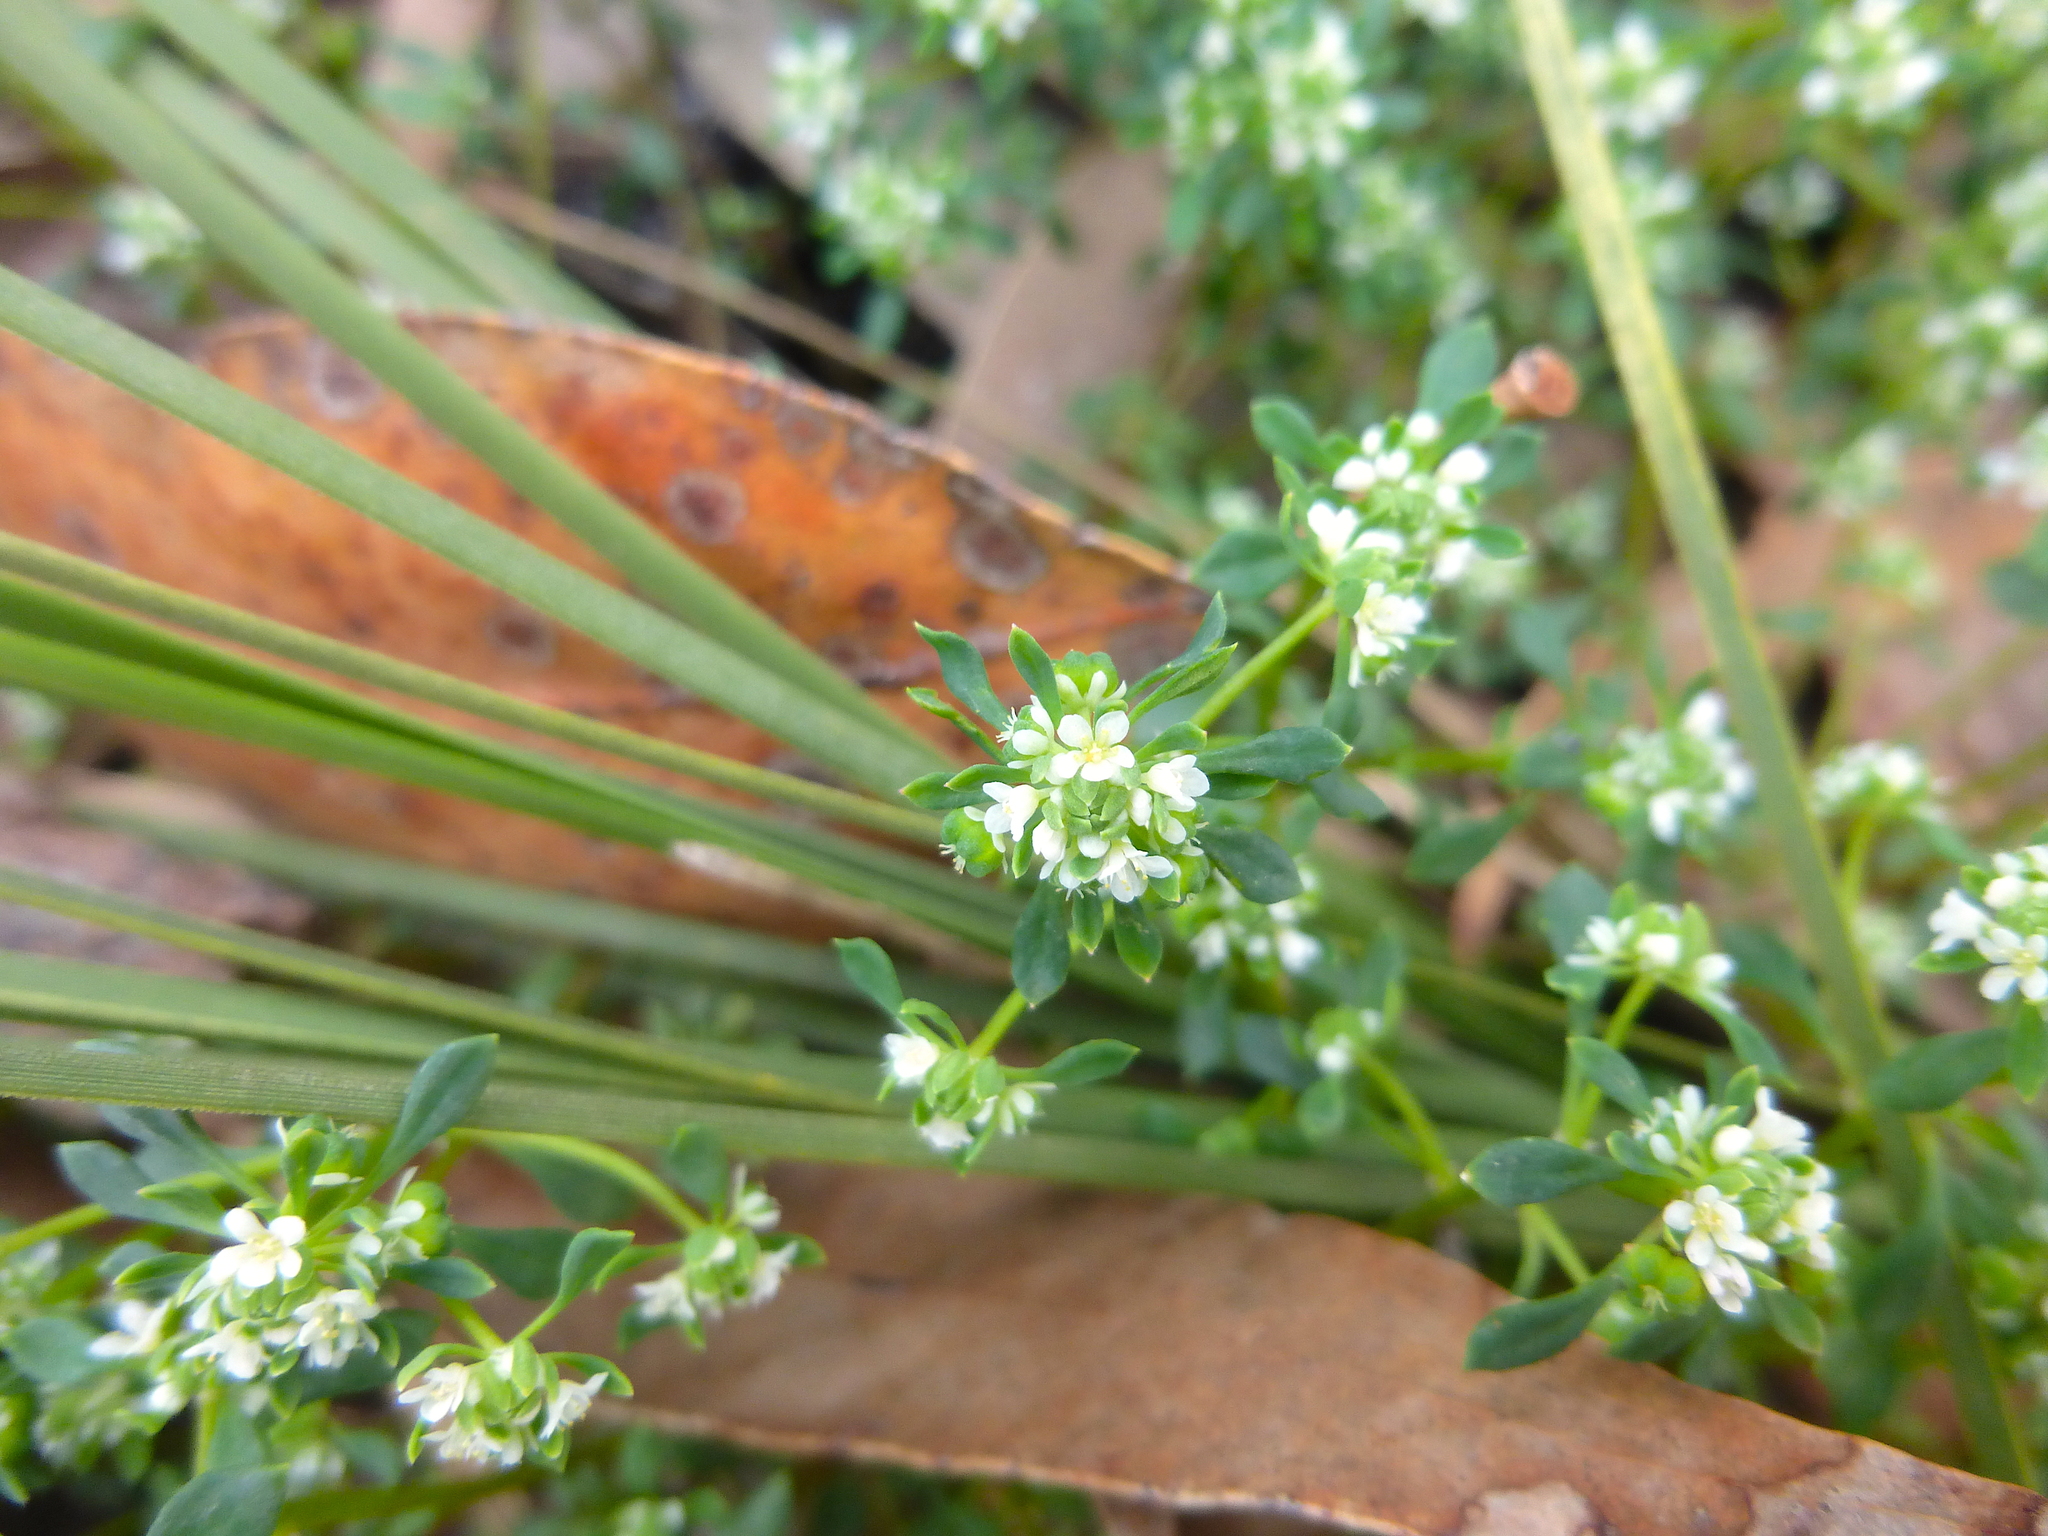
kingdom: Plantae
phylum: Tracheophyta
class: Magnoliopsida
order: Malpighiales
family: Phyllanthaceae
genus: Poranthera
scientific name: Poranthera microphylla
